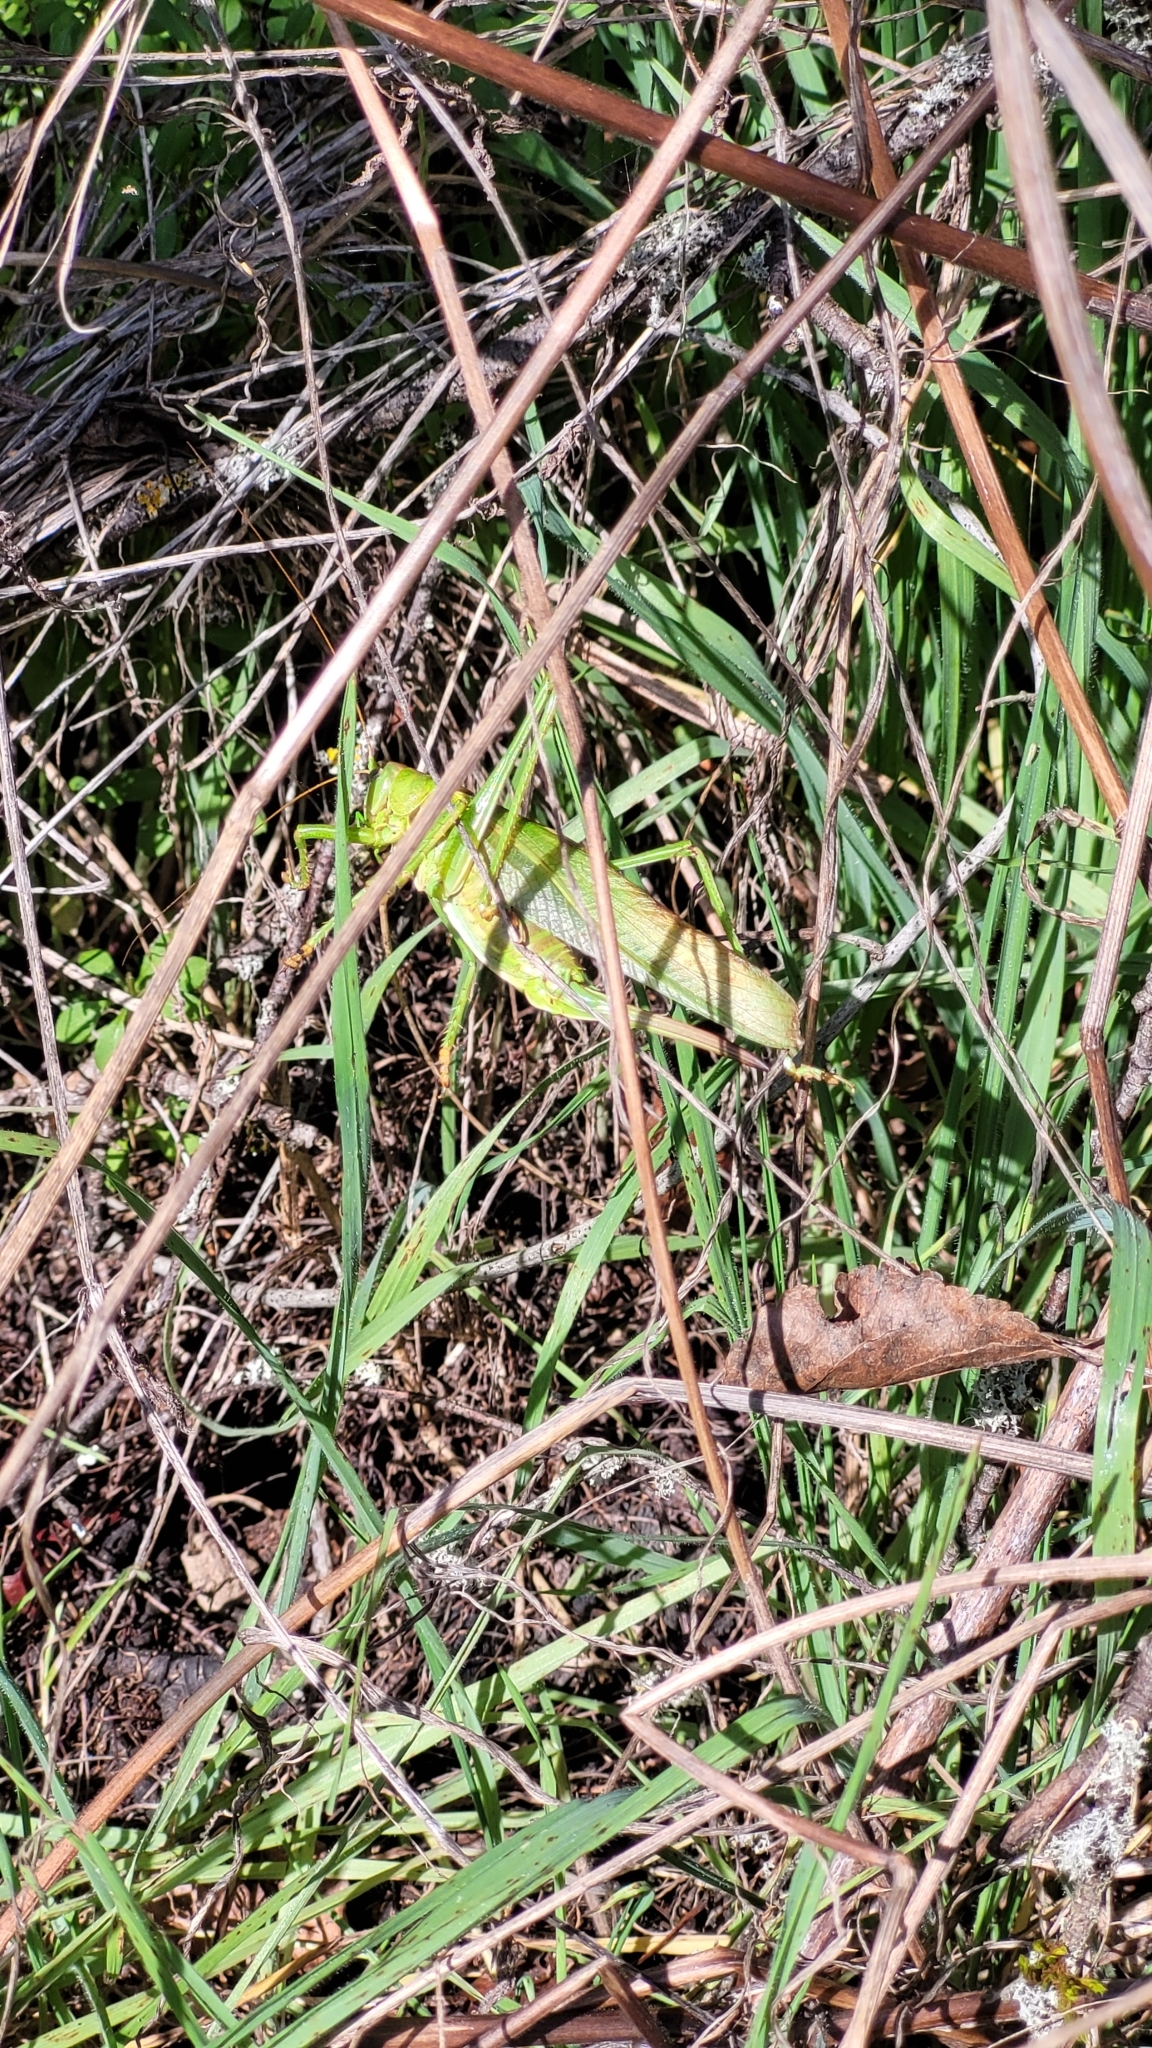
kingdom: Animalia
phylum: Arthropoda
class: Insecta
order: Orthoptera
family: Tettigoniidae
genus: Tettigonia
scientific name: Tettigonia viridissima
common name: Great green bush-cricket
